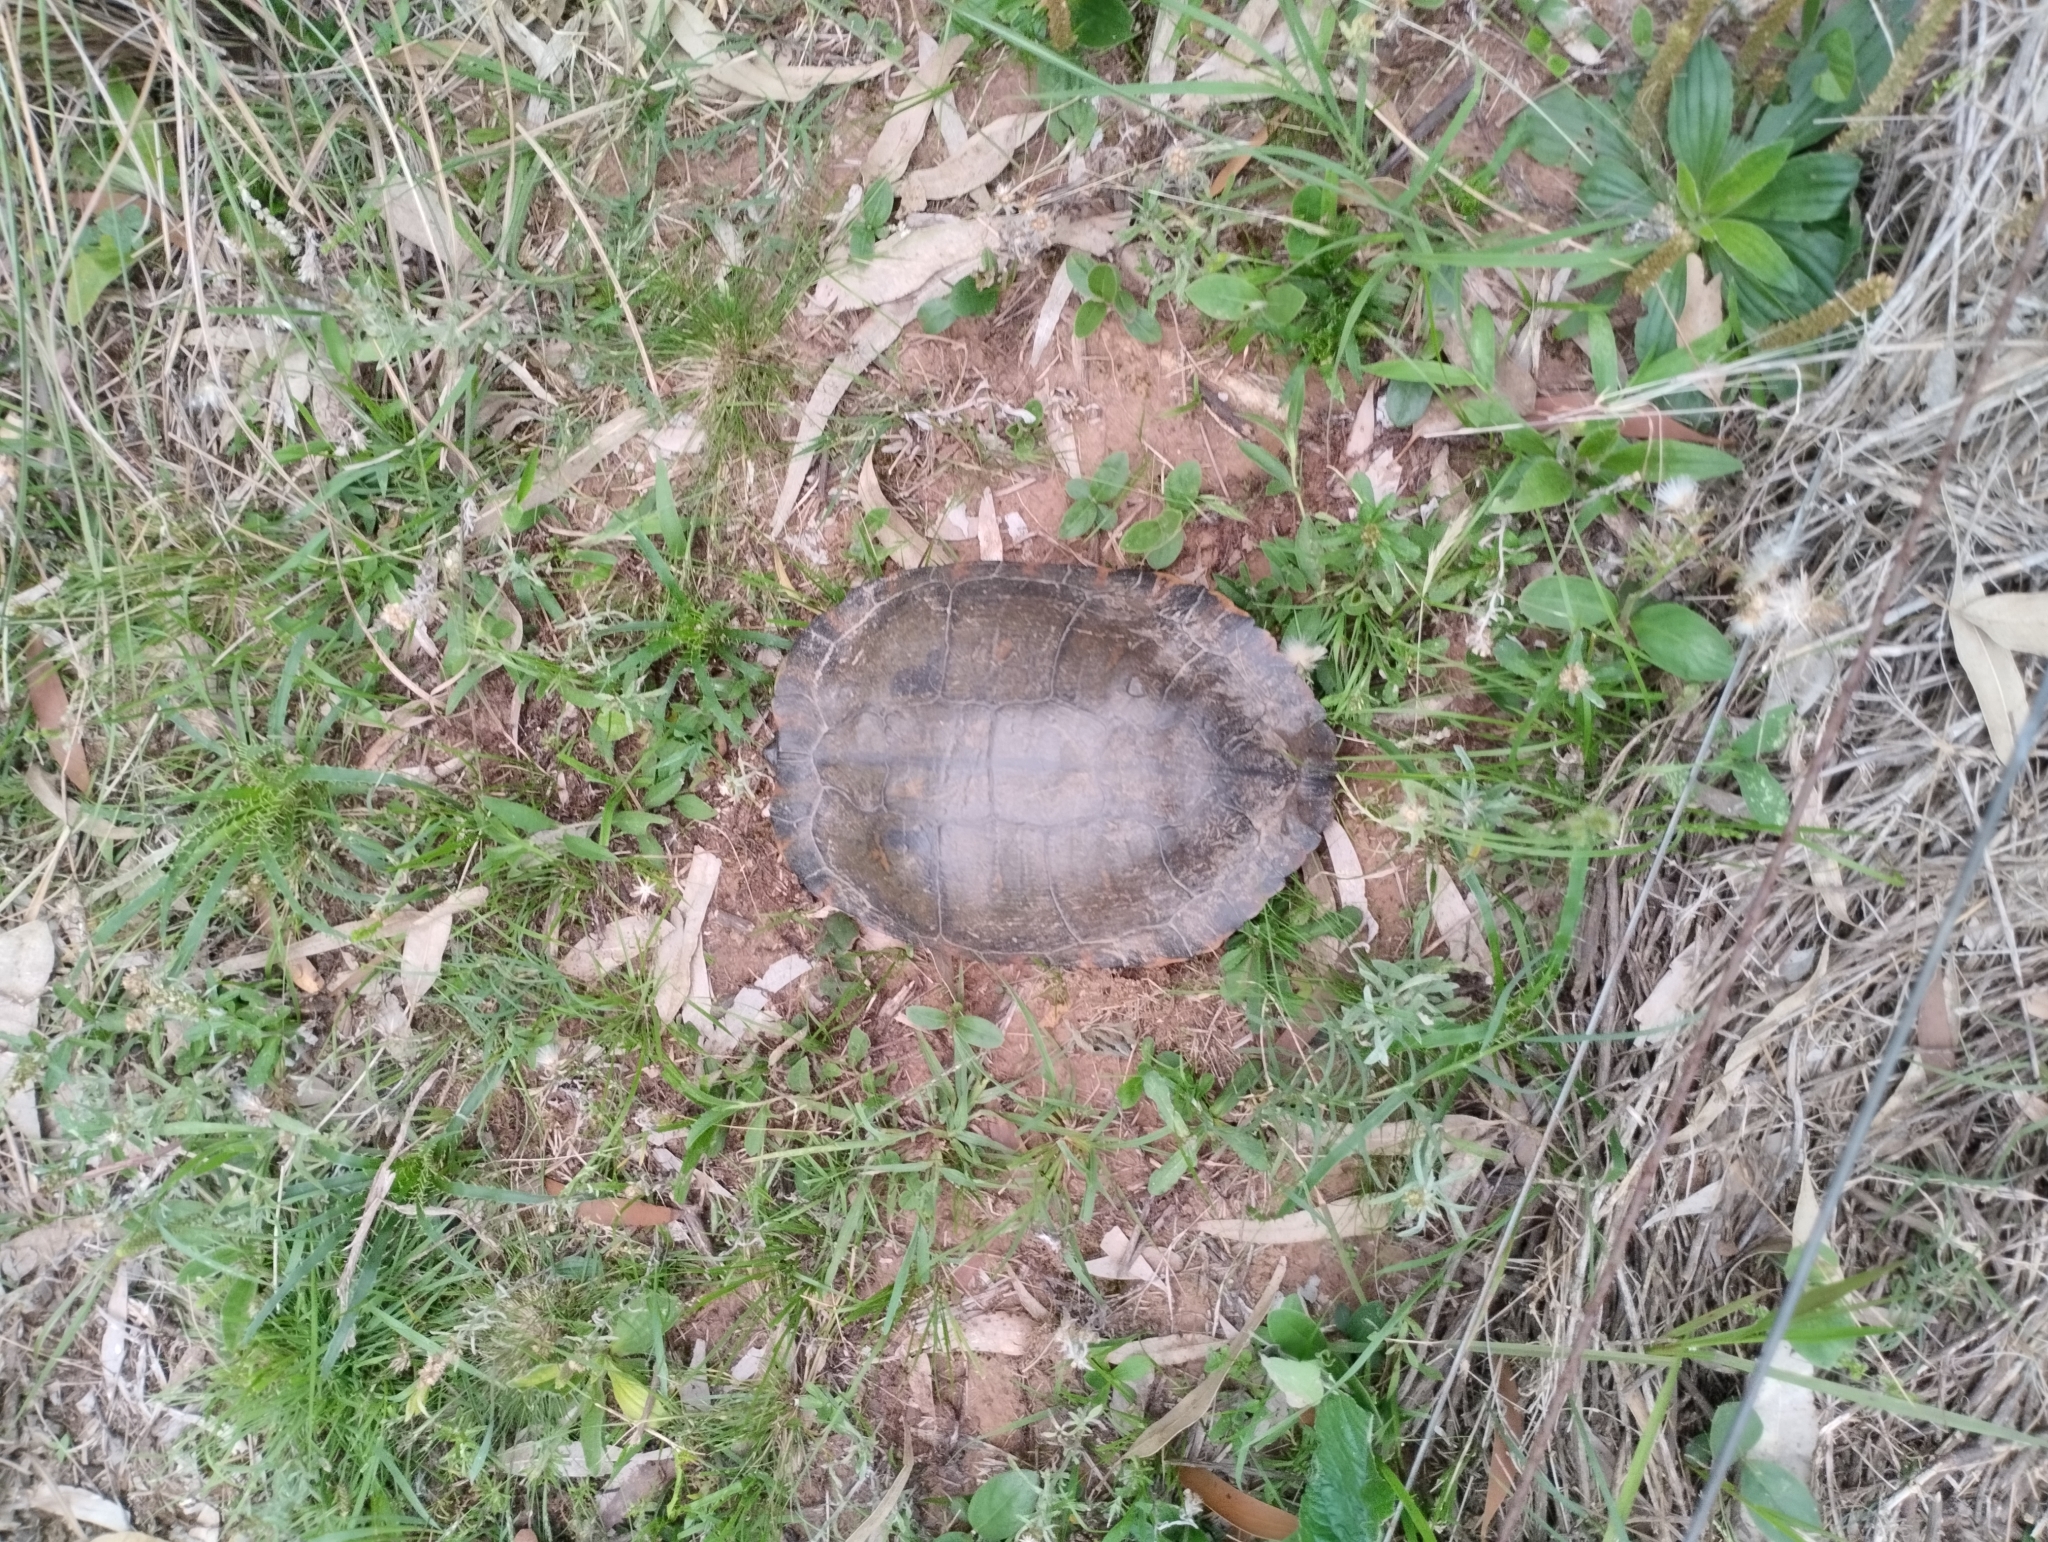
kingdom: Animalia
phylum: Chordata
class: Testudines
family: Emydidae
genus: Trachemys
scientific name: Trachemys dorbigni
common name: Black-bellied slider
